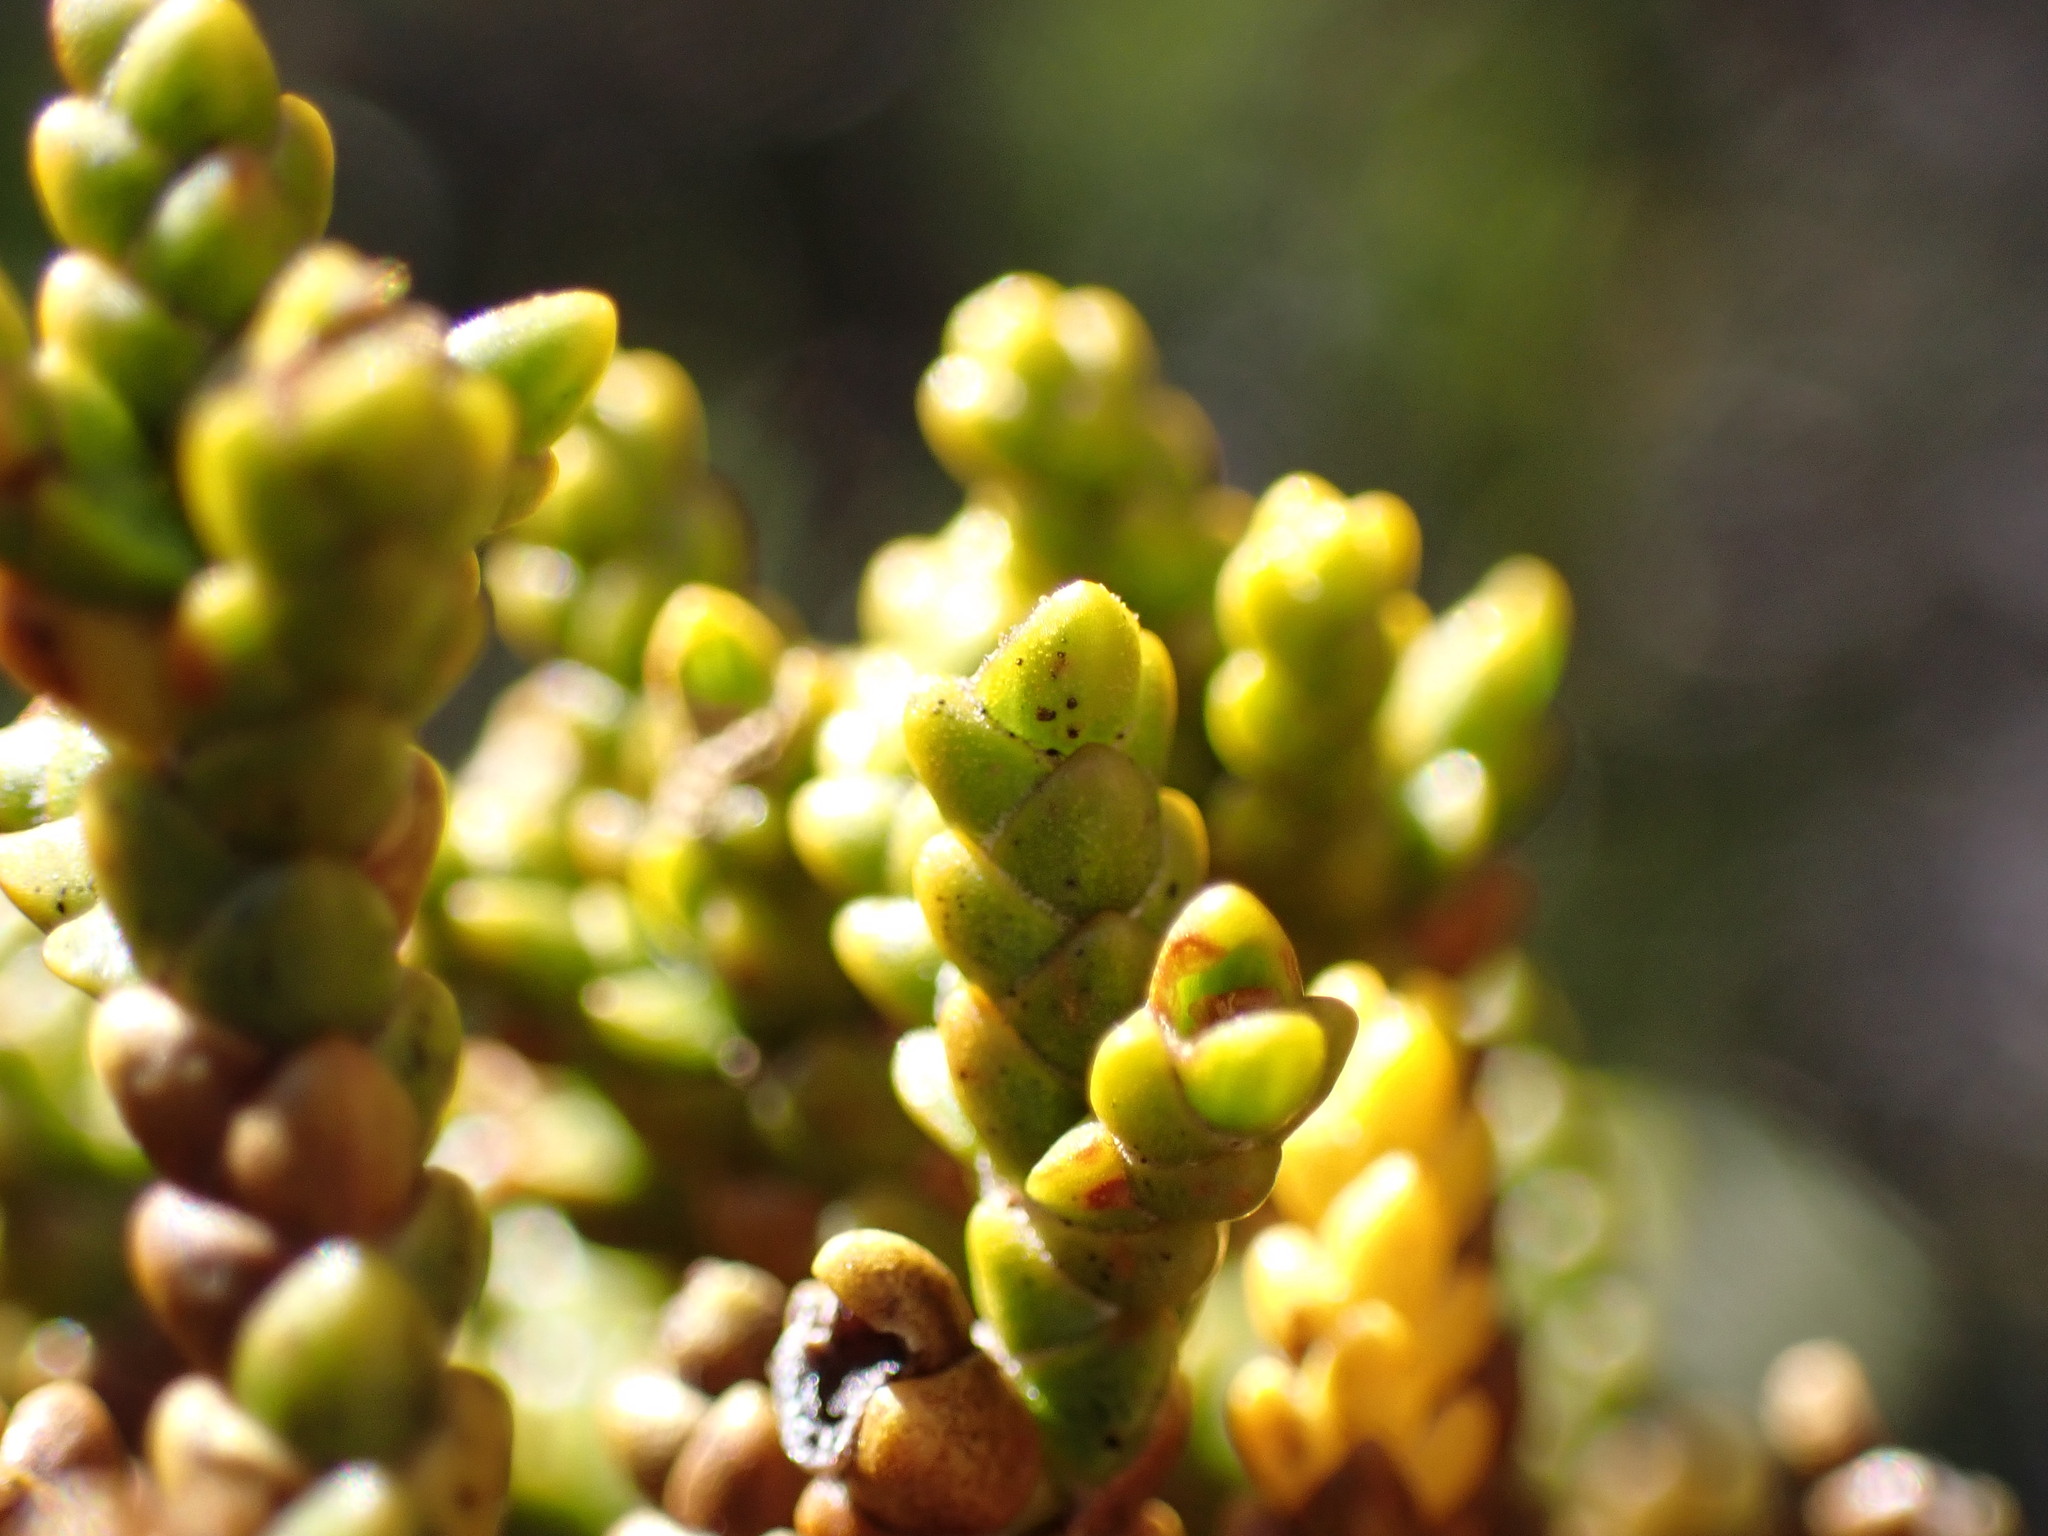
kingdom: Plantae
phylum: Tracheophyta
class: Magnoliopsida
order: Lamiales
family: Plantaginaceae
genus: Veronica
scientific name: Veronica tetragona
